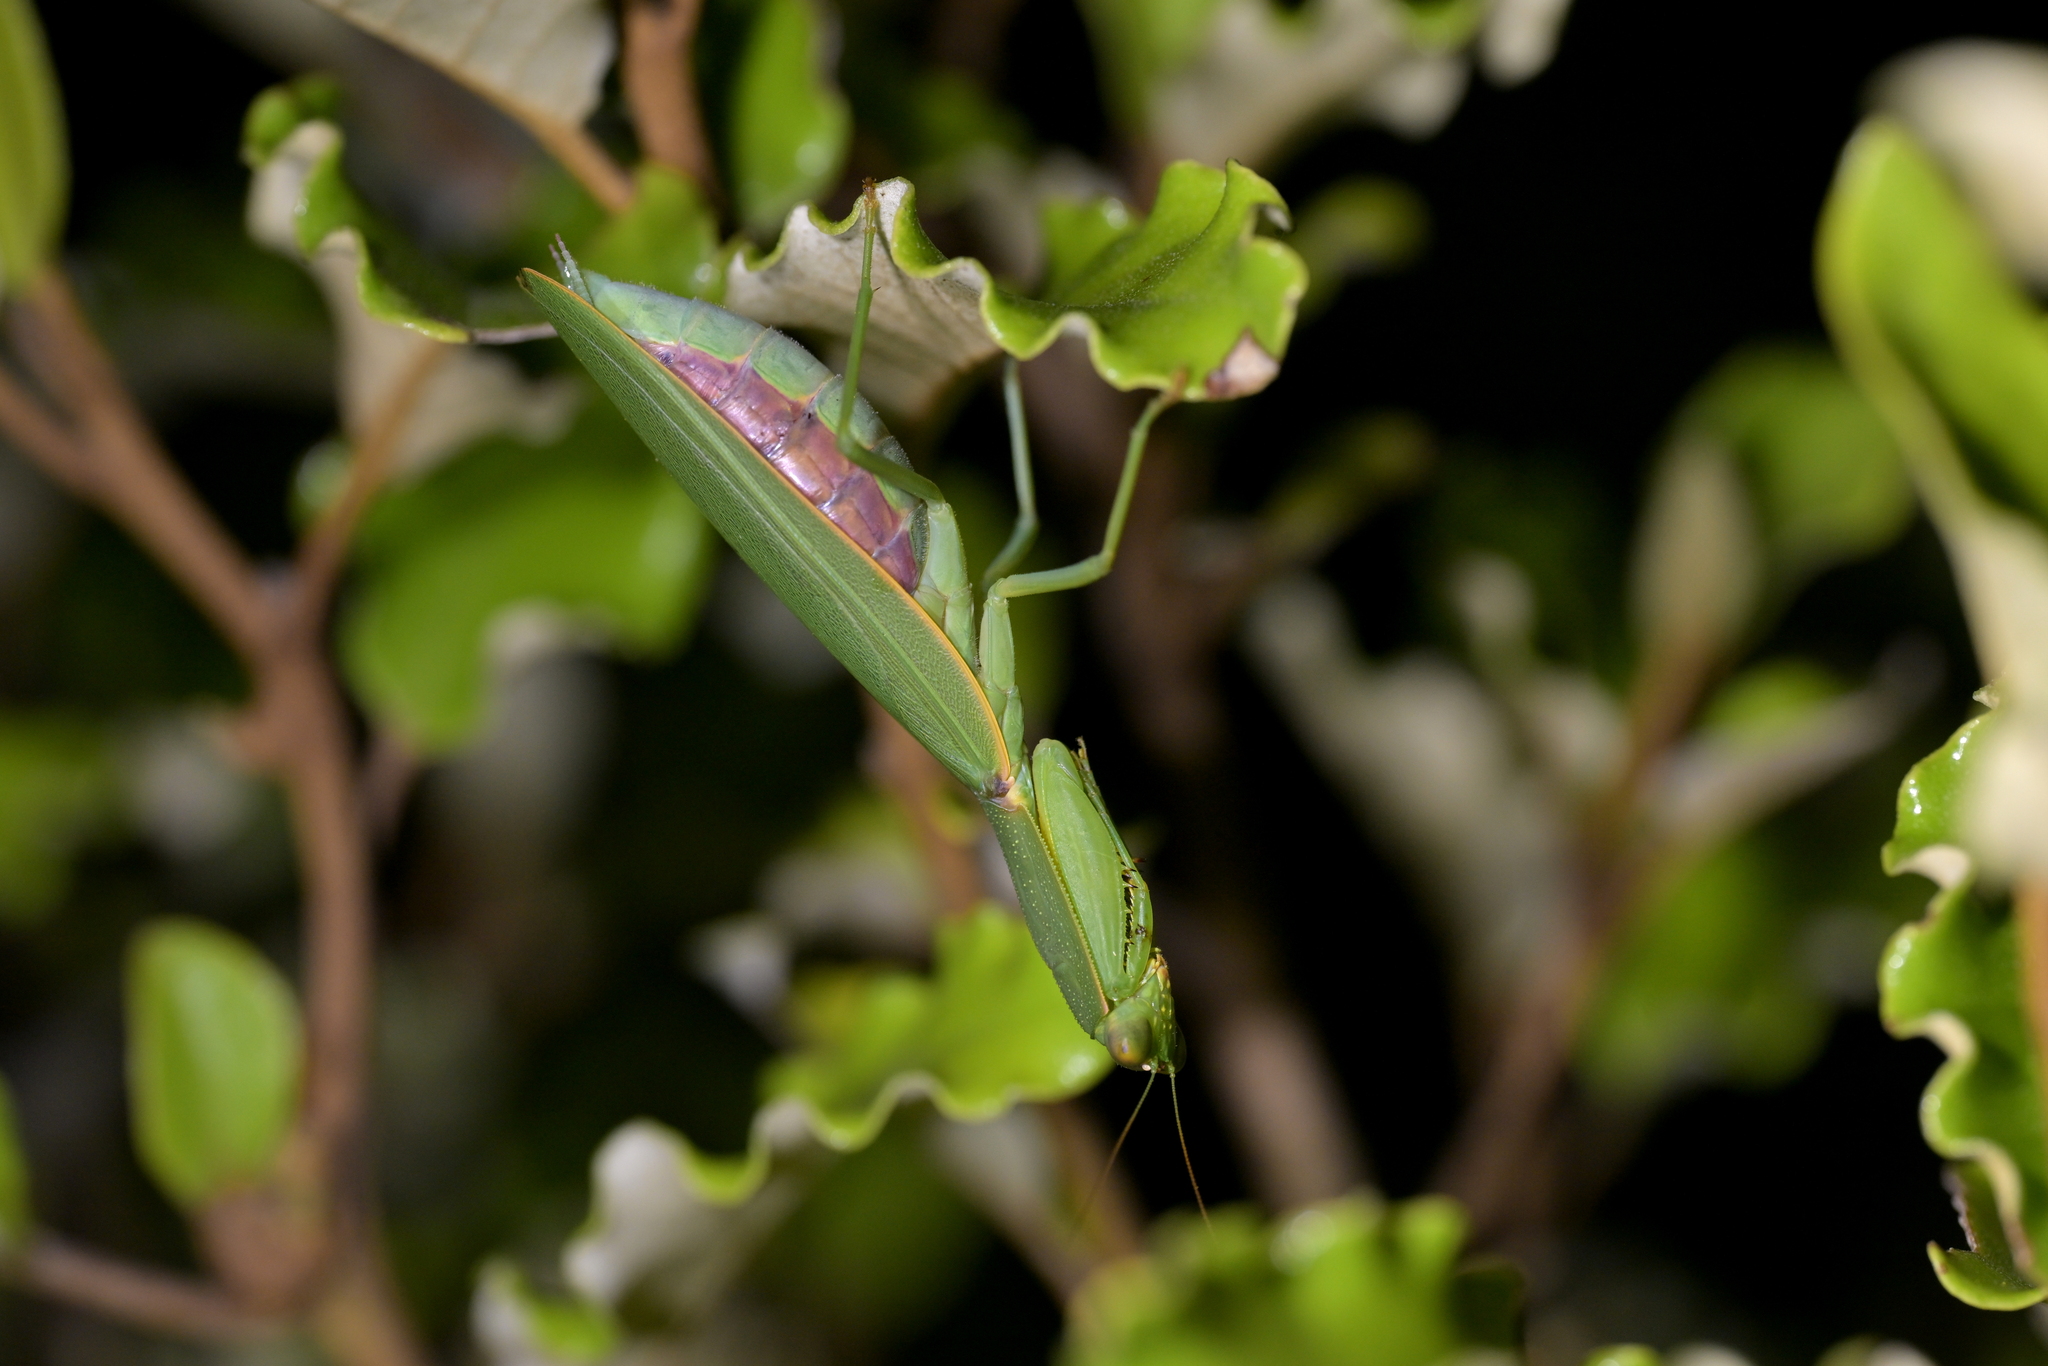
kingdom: Animalia
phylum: Arthropoda
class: Insecta
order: Mantodea
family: Mantidae
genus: Orthodera
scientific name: Orthodera novaezealandiae
